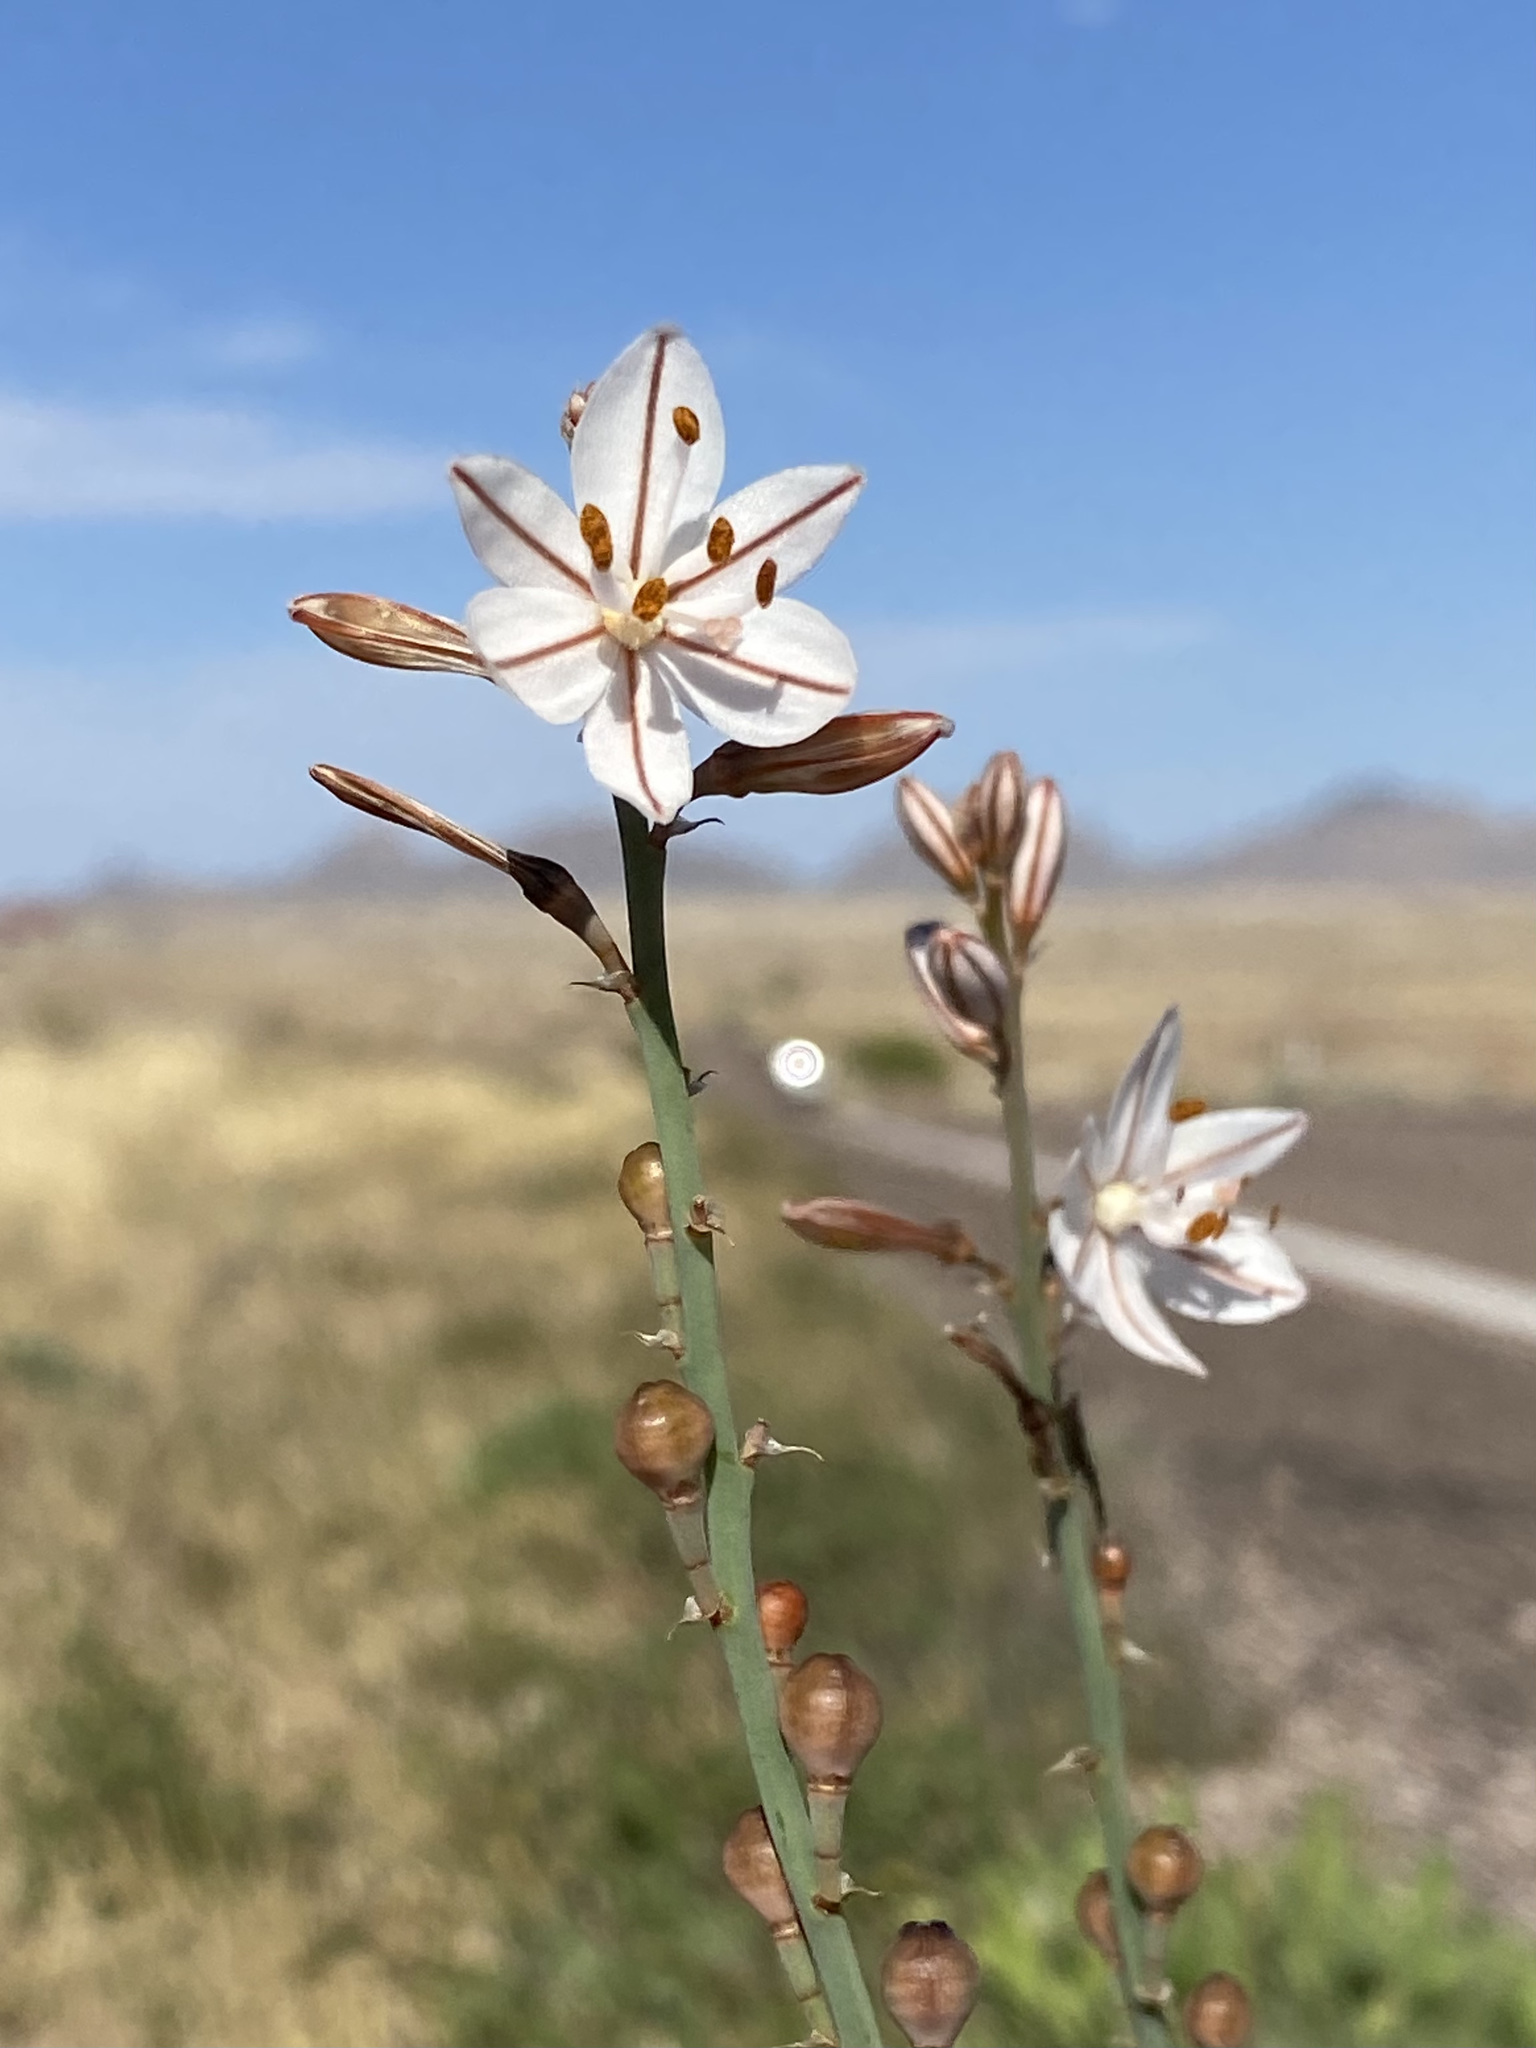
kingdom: Plantae
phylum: Tracheophyta
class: Liliopsida
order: Asparagales
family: Asphodelaceae
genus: Asphodelus
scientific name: Asphodelus fistulosus
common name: Onionweed
